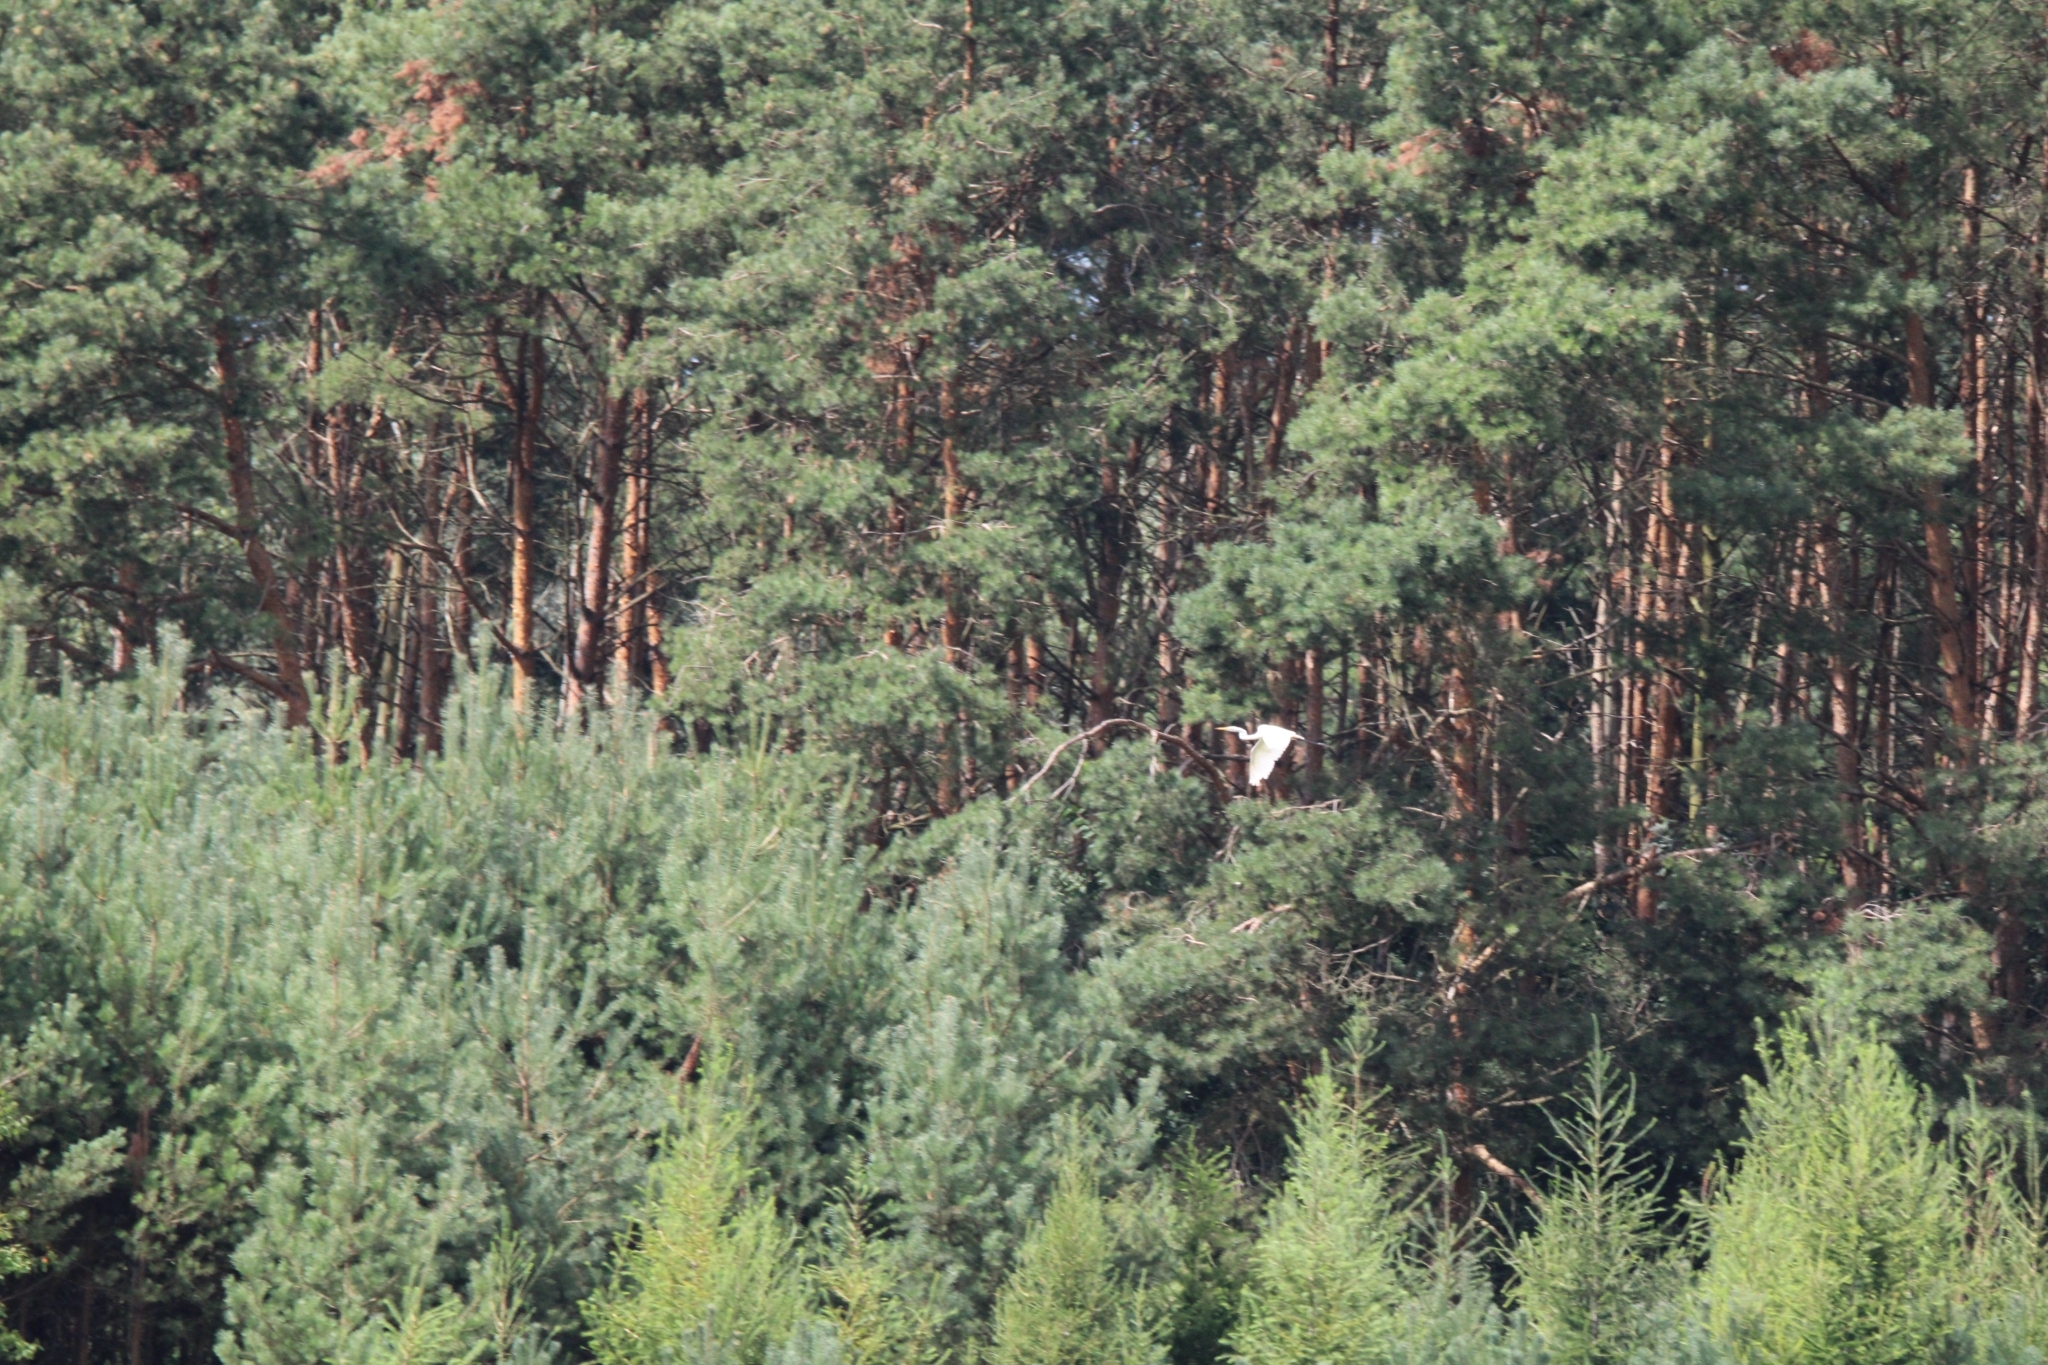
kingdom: Animalia
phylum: Chordata
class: Aves
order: Pelecaniformes
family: Ardeidae
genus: Ardea
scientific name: Ardea alba
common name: Great egret
